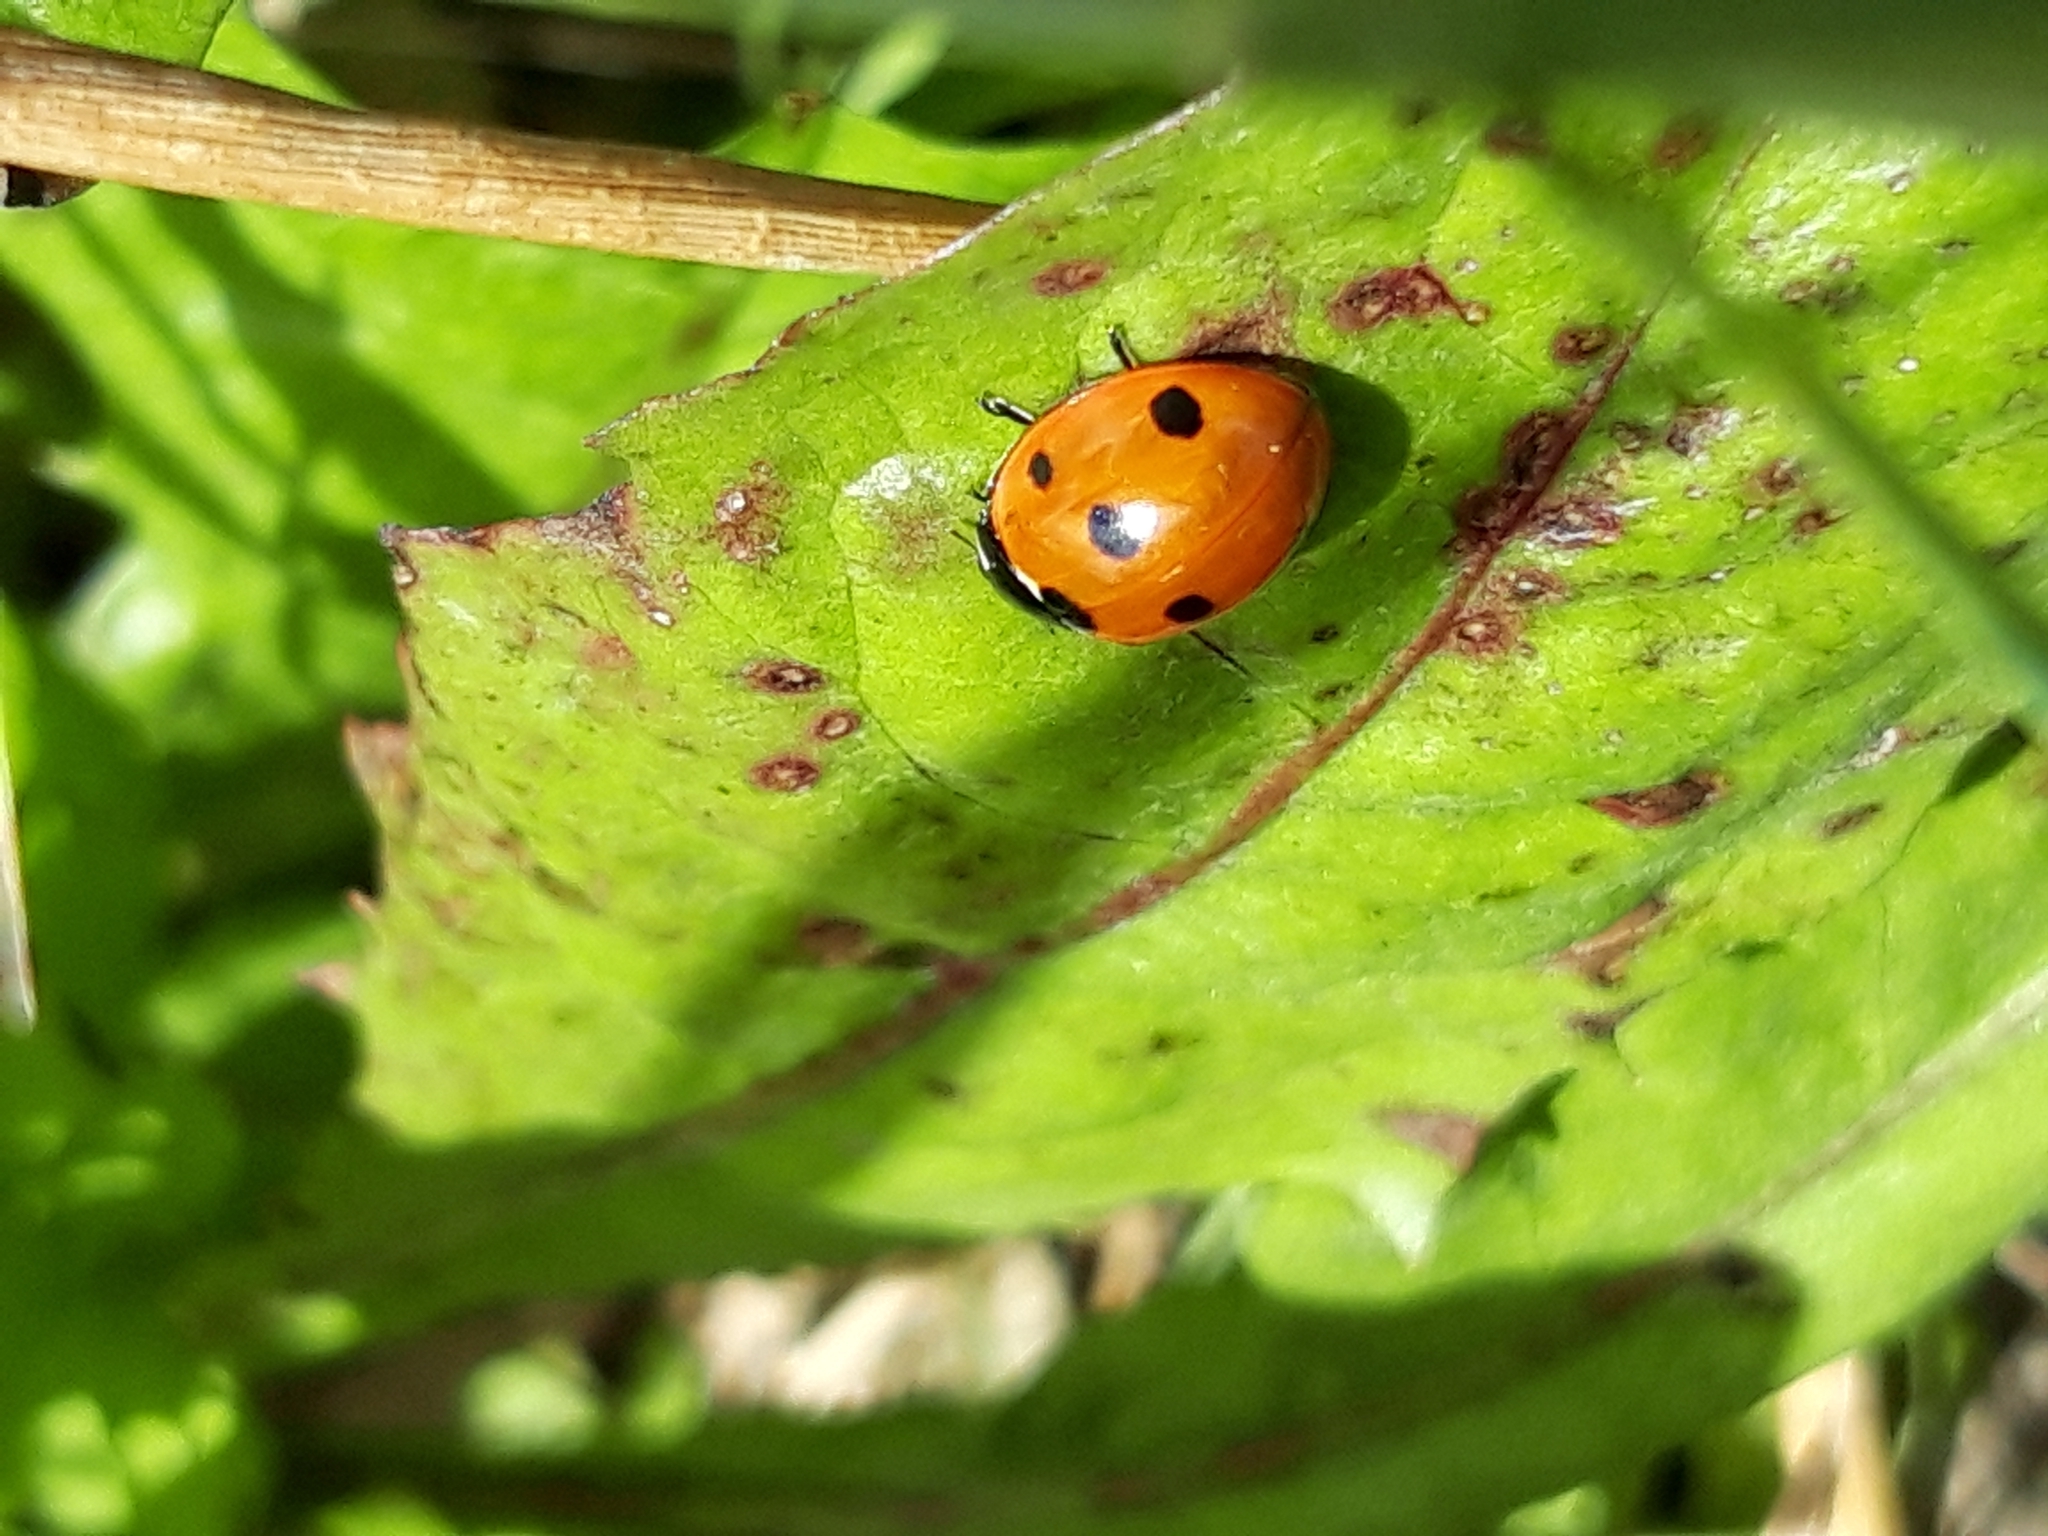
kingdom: Animalia
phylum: Arthropoda
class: Insecta
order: Coleoptera
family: Coccinellidae
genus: Coccinella
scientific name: Coccinella septempunctata
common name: Sevenspotted lady beetle
